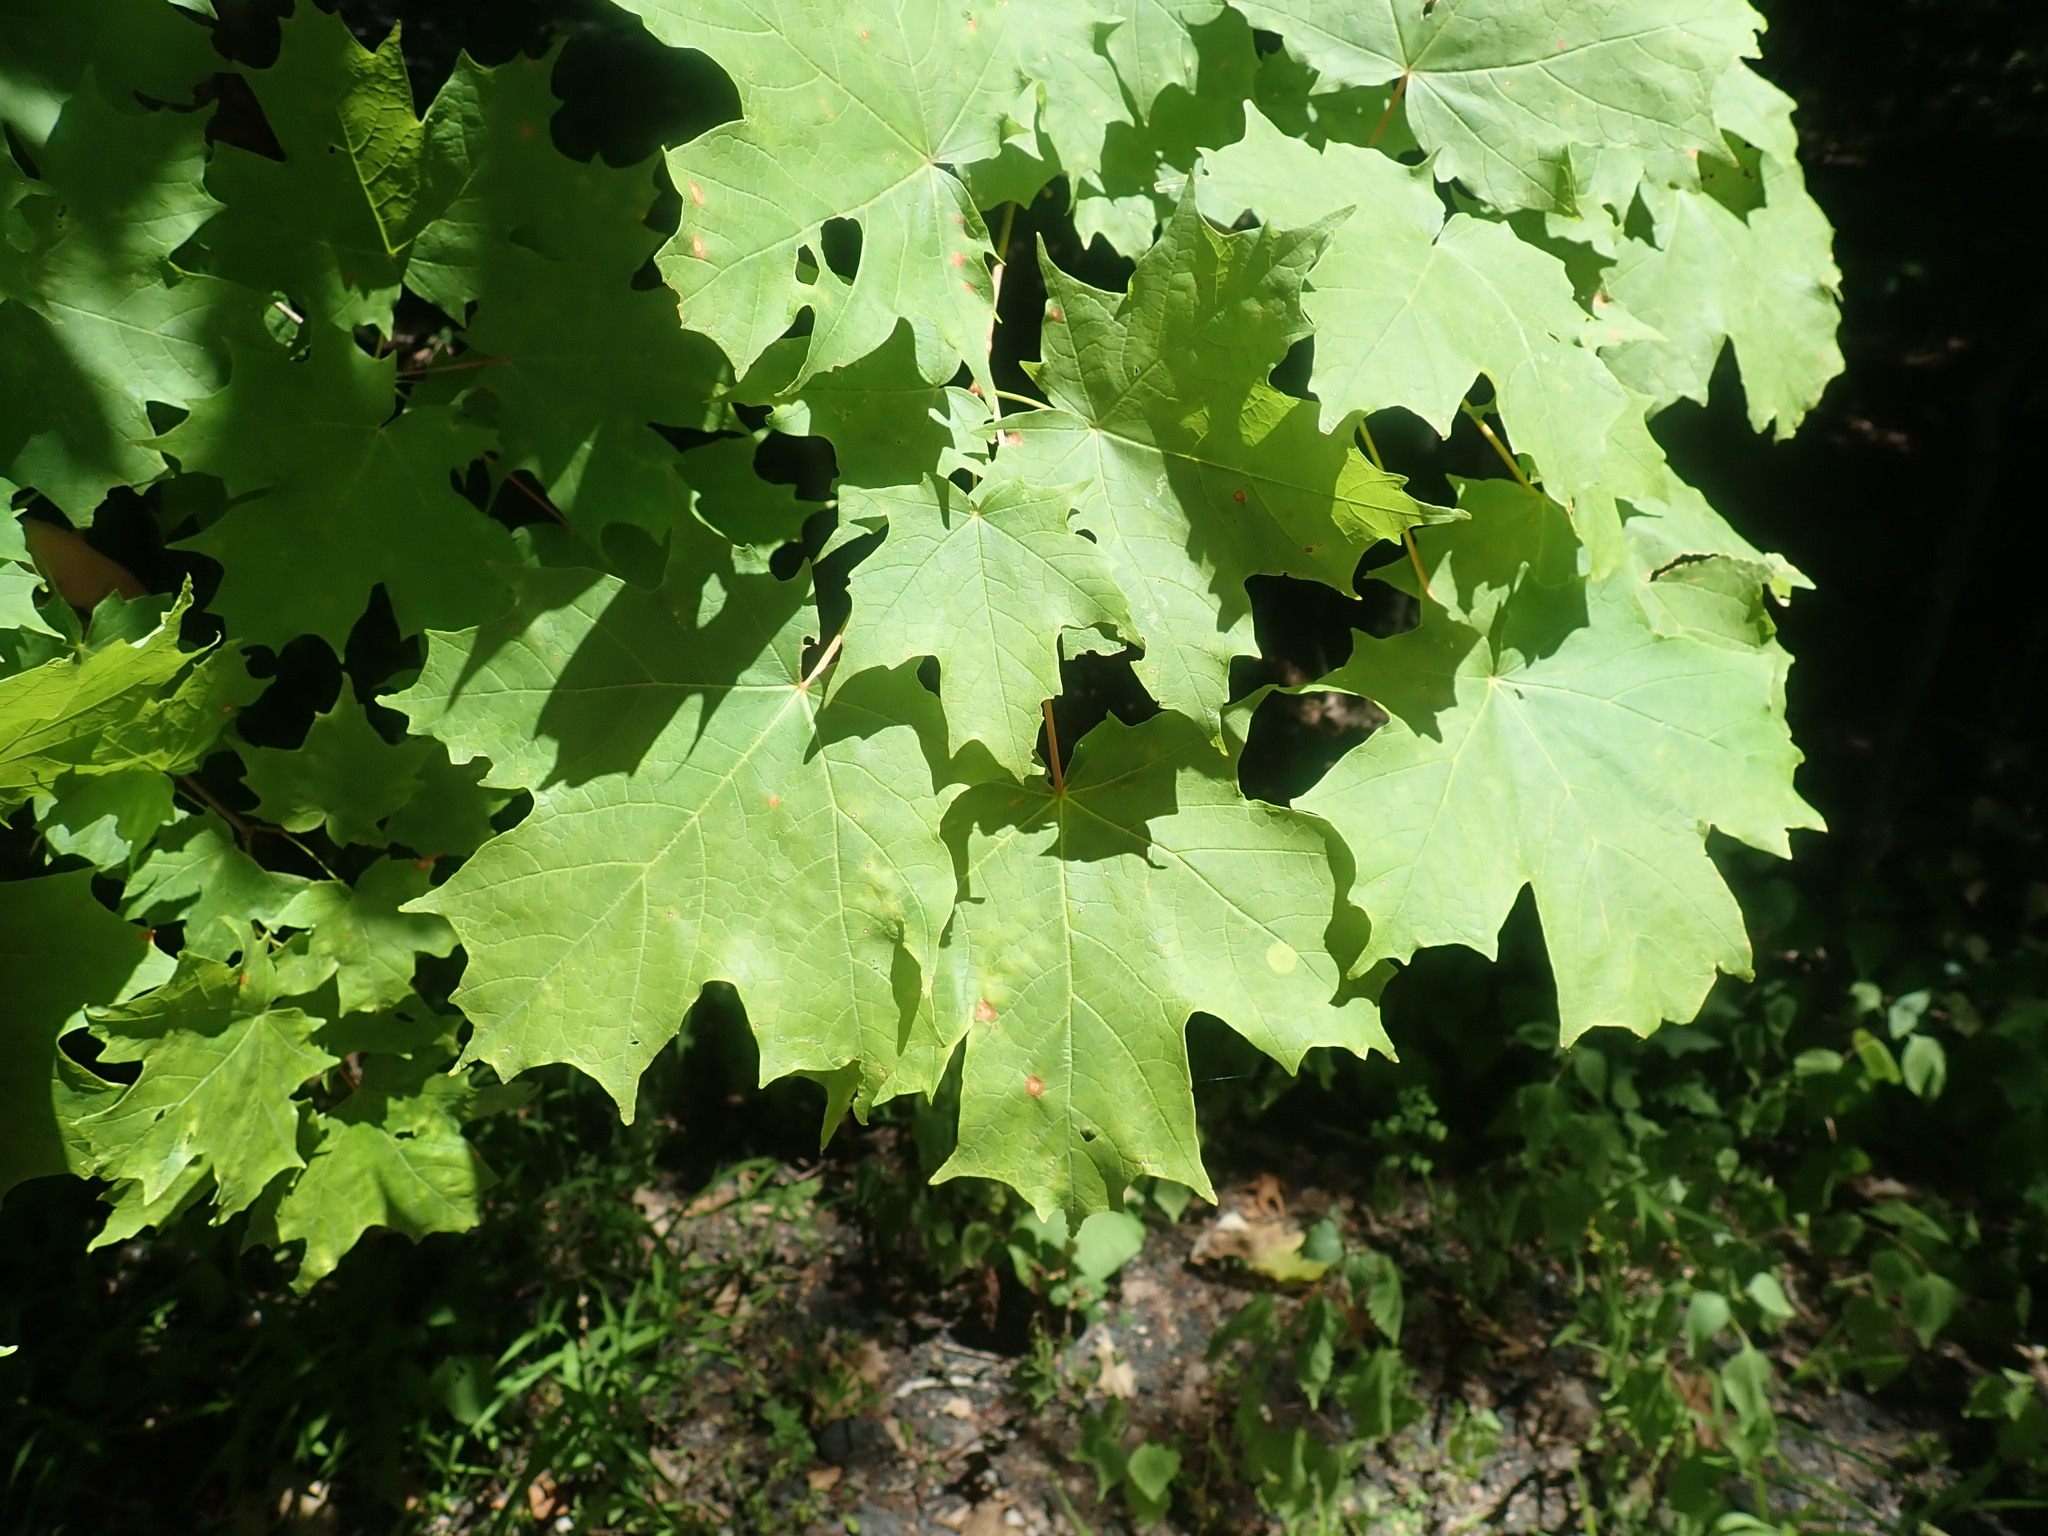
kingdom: Plantae
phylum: Tracheophyta
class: Magnoliopsida
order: Sapindales
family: Sapindaceae
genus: Acer
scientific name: Acer saccharum
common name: Sugar maple
